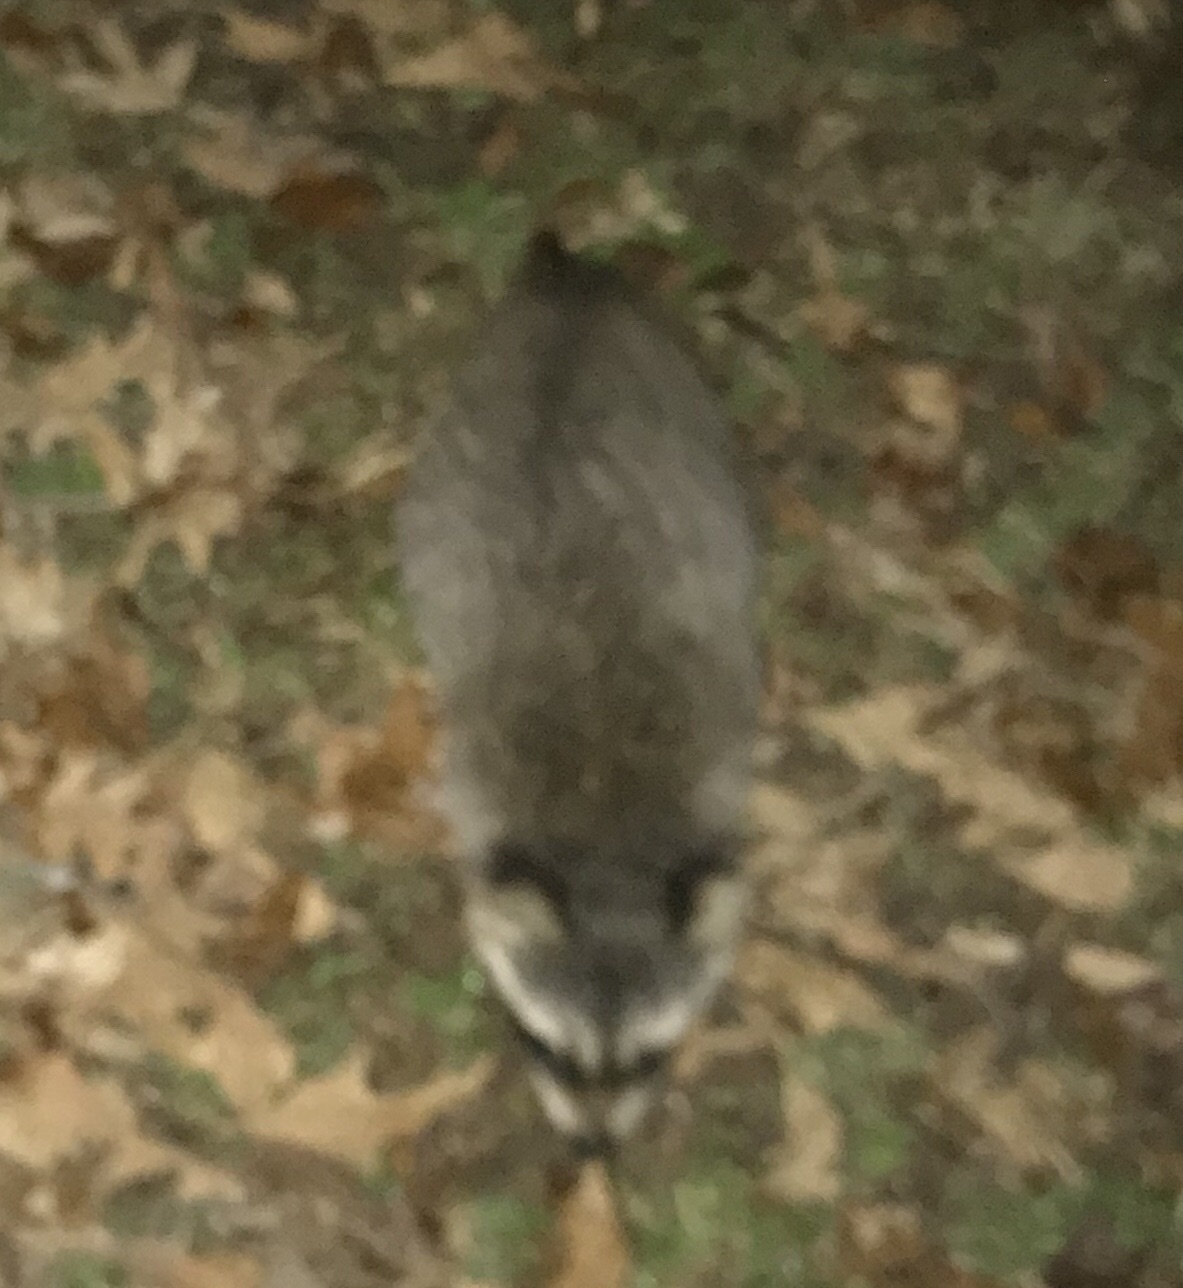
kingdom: Animalia
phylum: Chordata
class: Mammalia
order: Carnivora
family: Procyonidae
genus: Procyon
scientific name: Procyon lotor
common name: Raccoon
